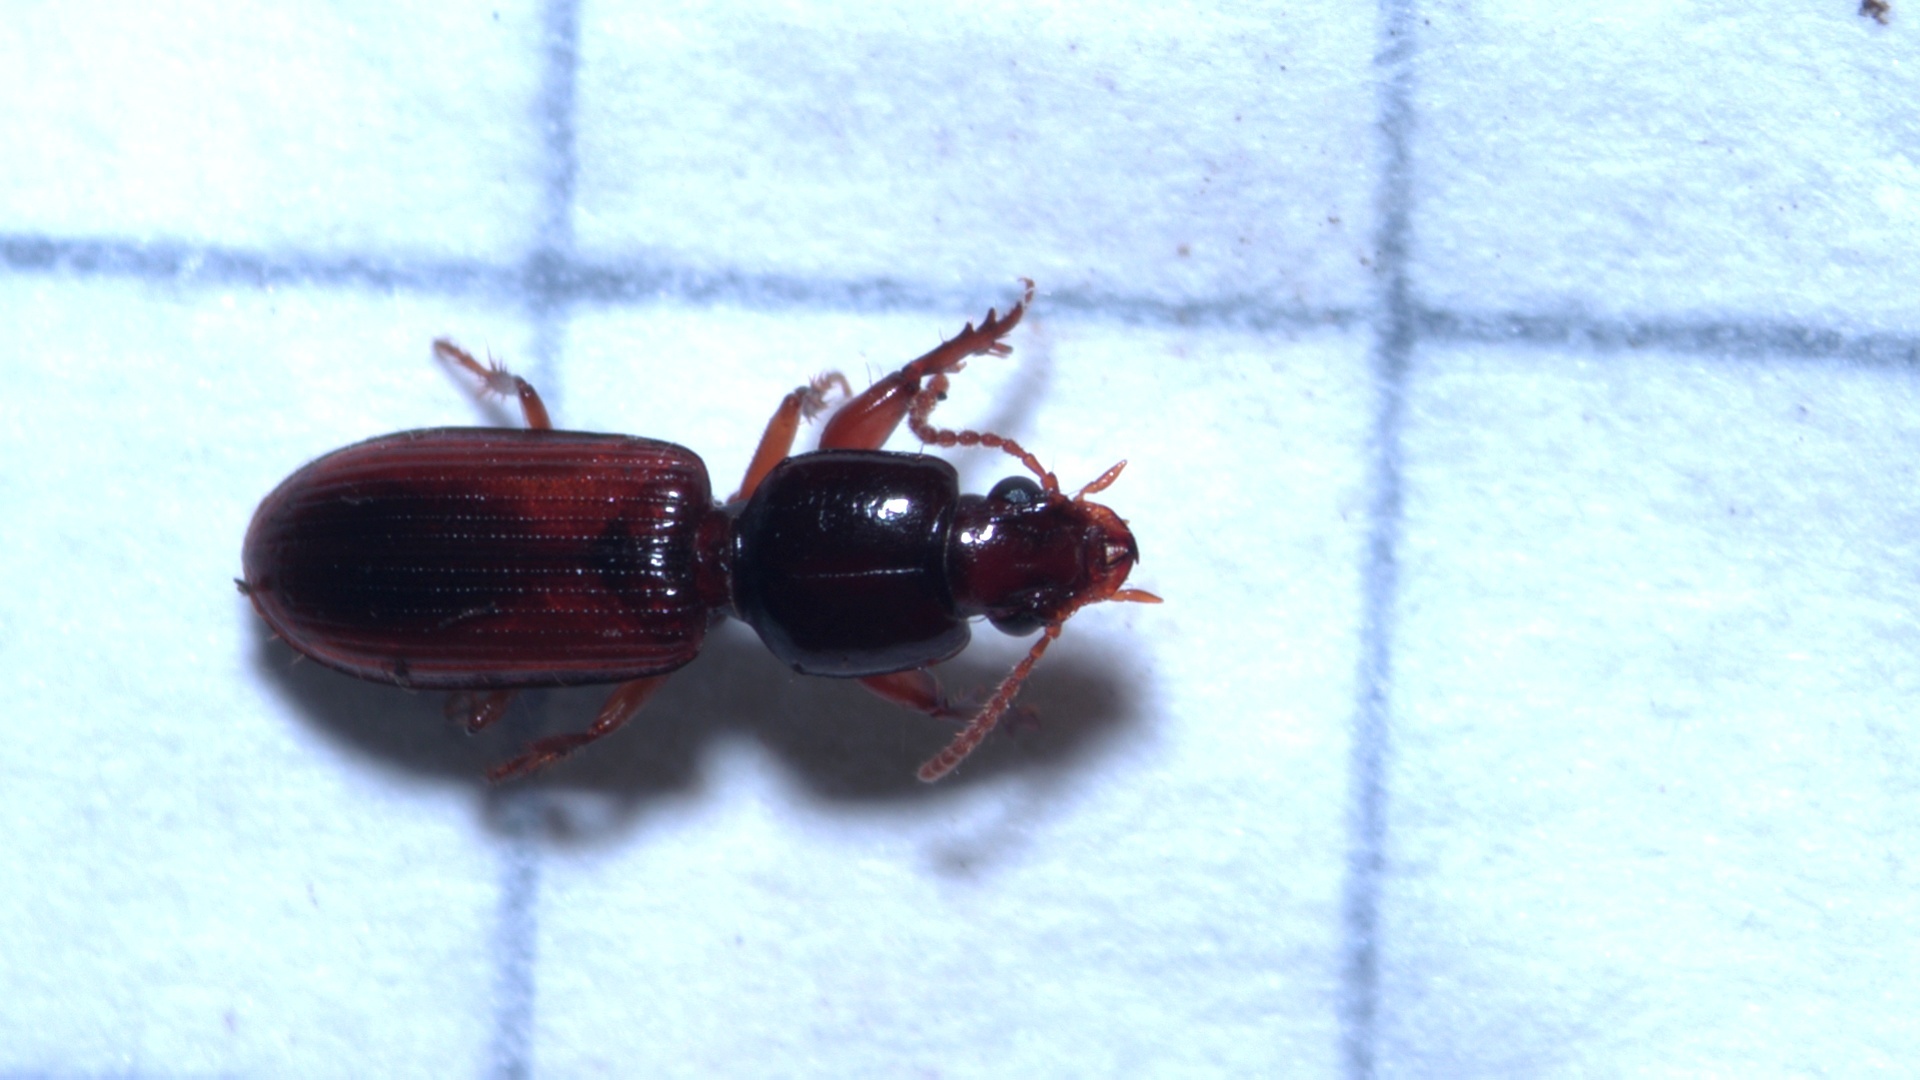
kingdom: Animalia
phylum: Arthropoda
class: Insecta
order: Coleoptera
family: Carabidae
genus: Clivina
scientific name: Clivina collaris
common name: Collared pedunculate ground beetle
